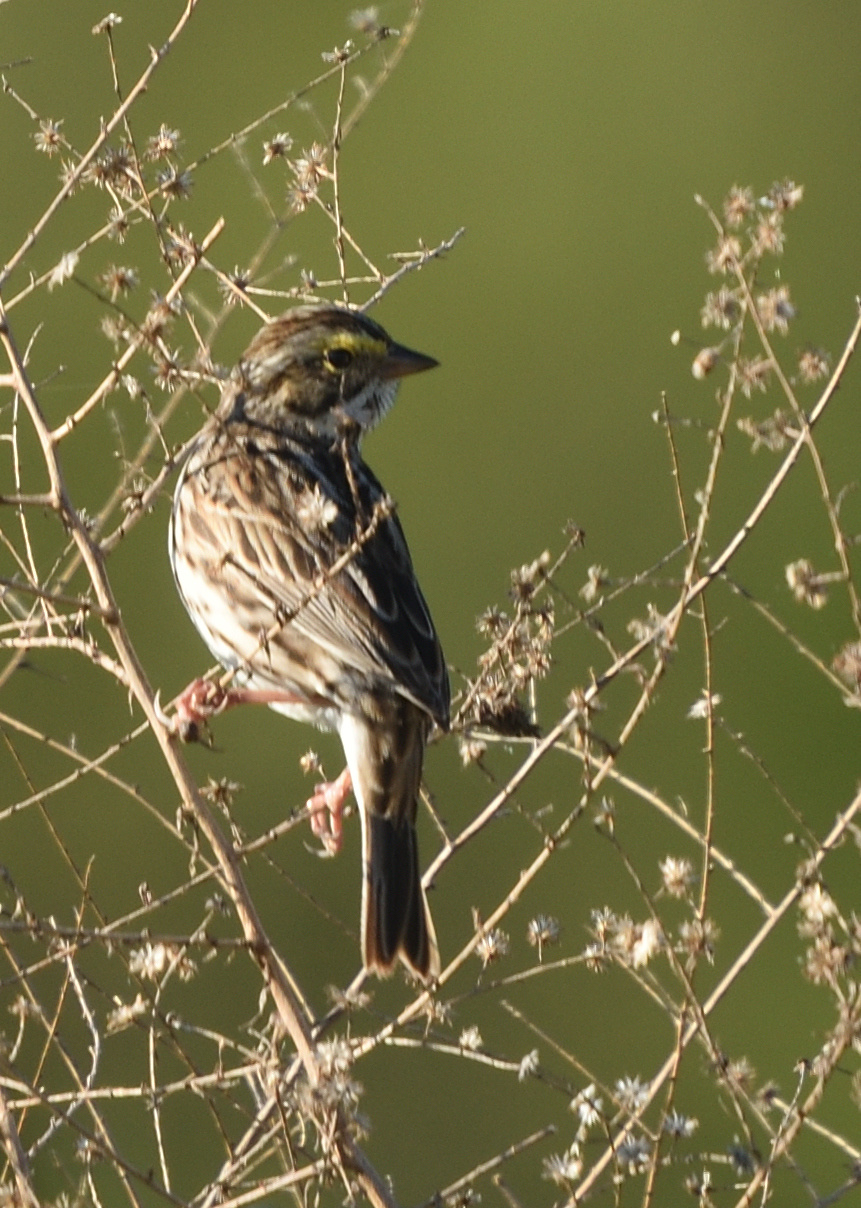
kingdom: Animalia
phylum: Chordata
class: Aves
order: Passeriformes
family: Passerellidae
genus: Passerculus
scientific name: Passerculus sandwichensis
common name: Savannah sparrow
